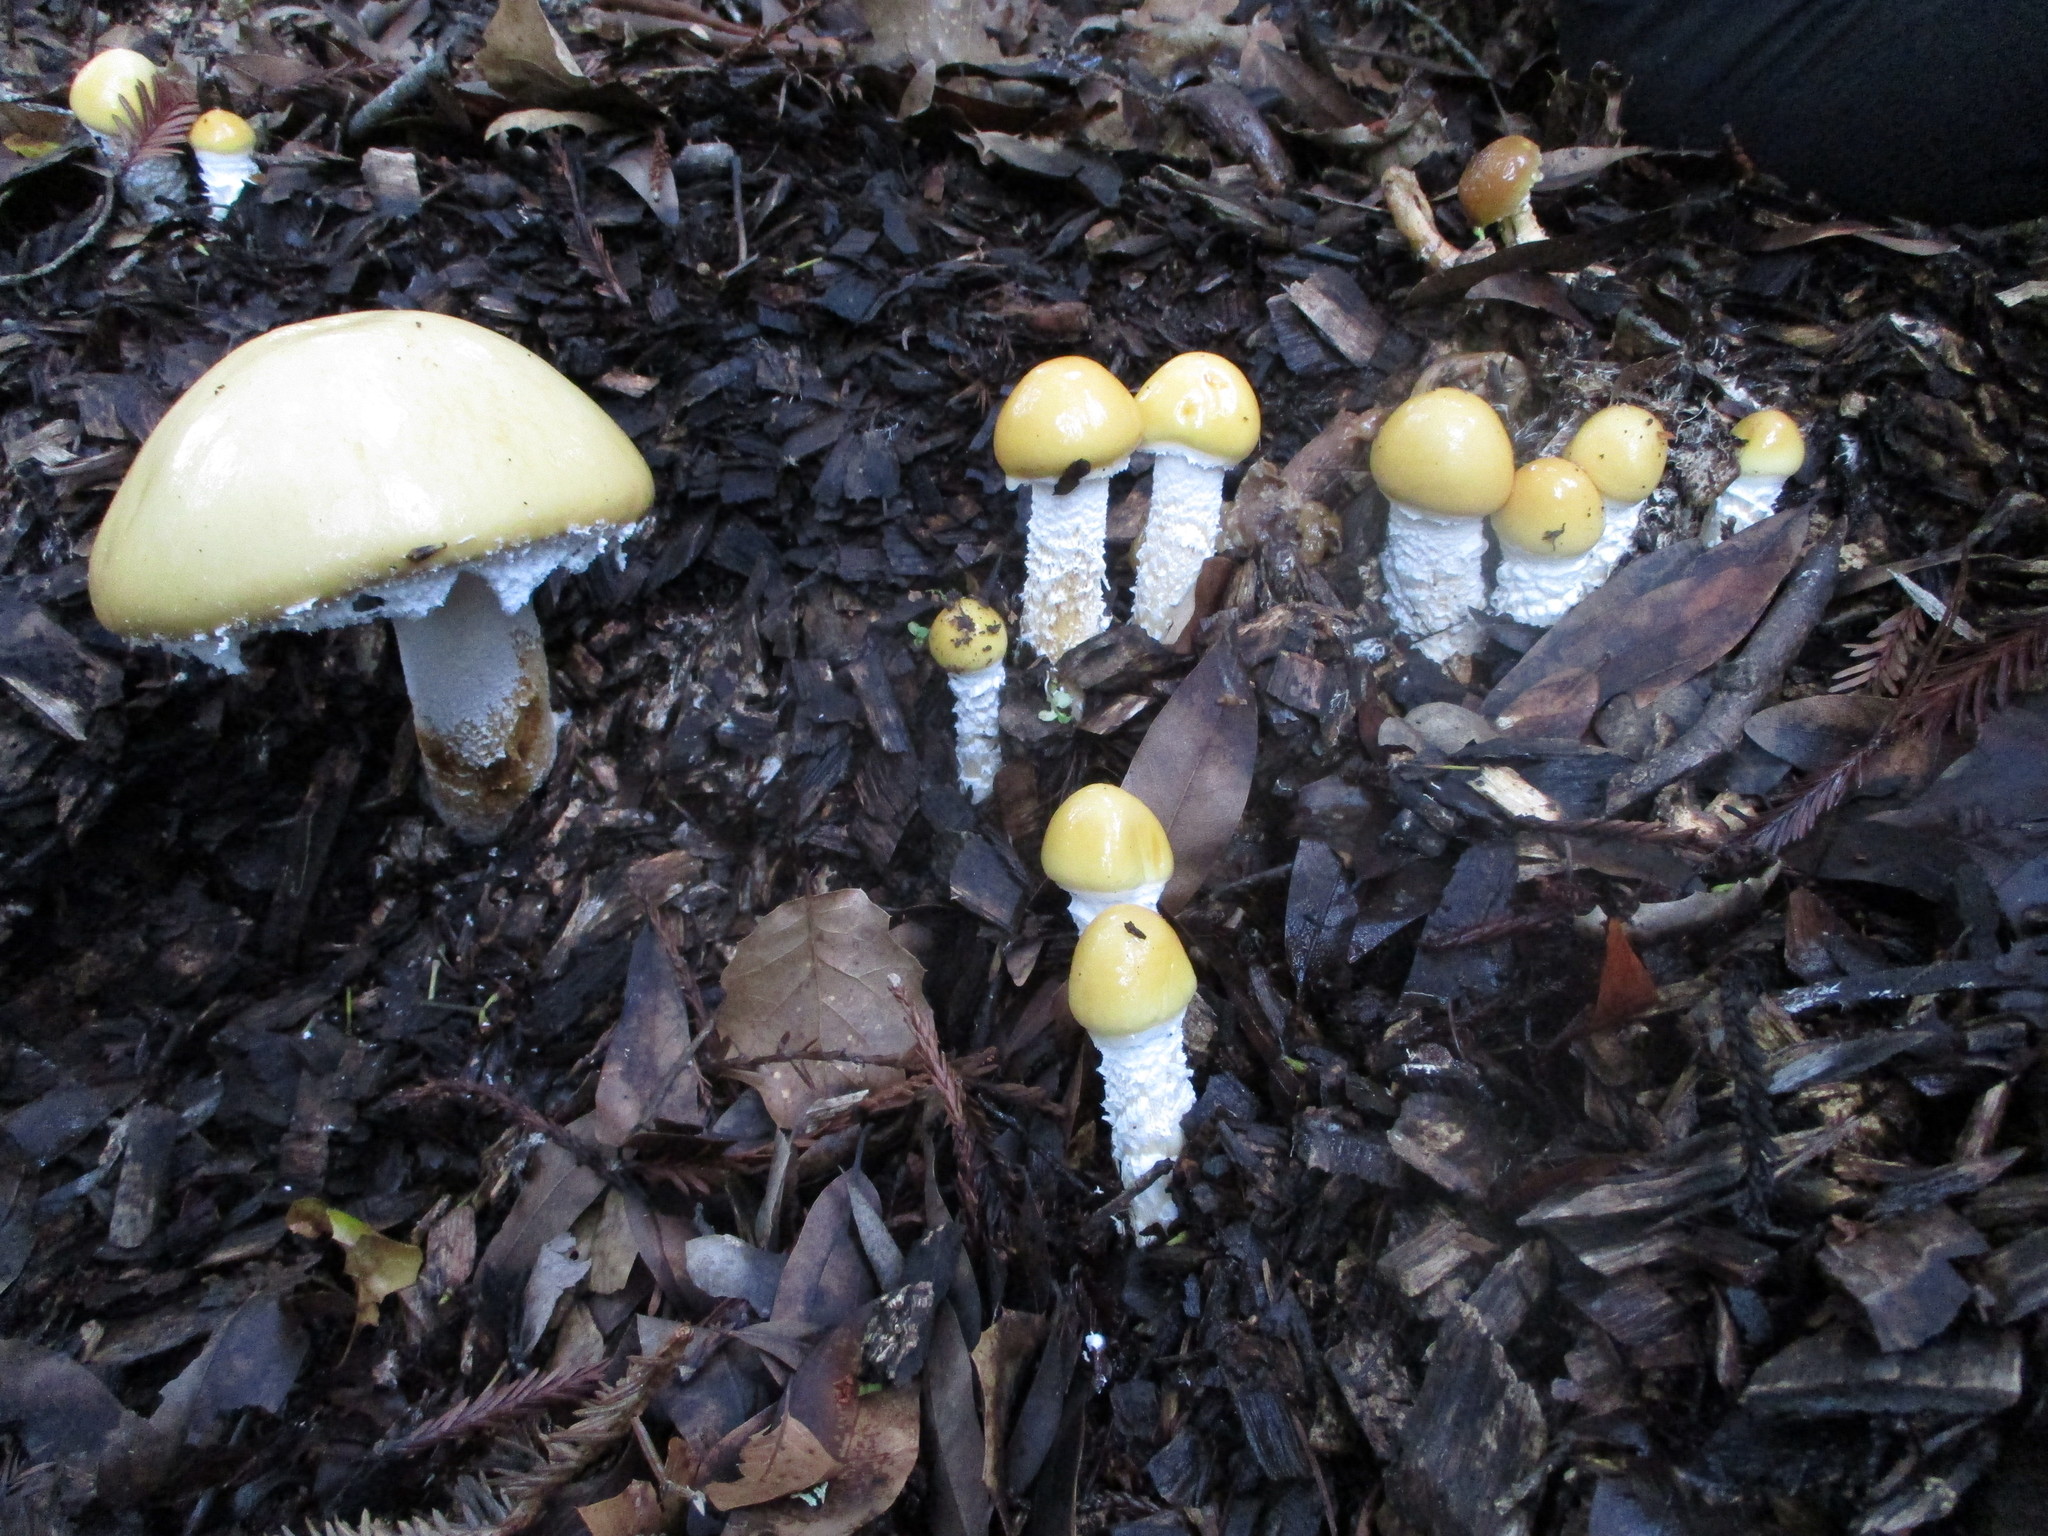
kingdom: Fungi
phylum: Basidiomycota
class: Agaricomycetes
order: Agaricales
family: Strophariaceae
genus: Stropharia
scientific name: Stropharia ambigua
